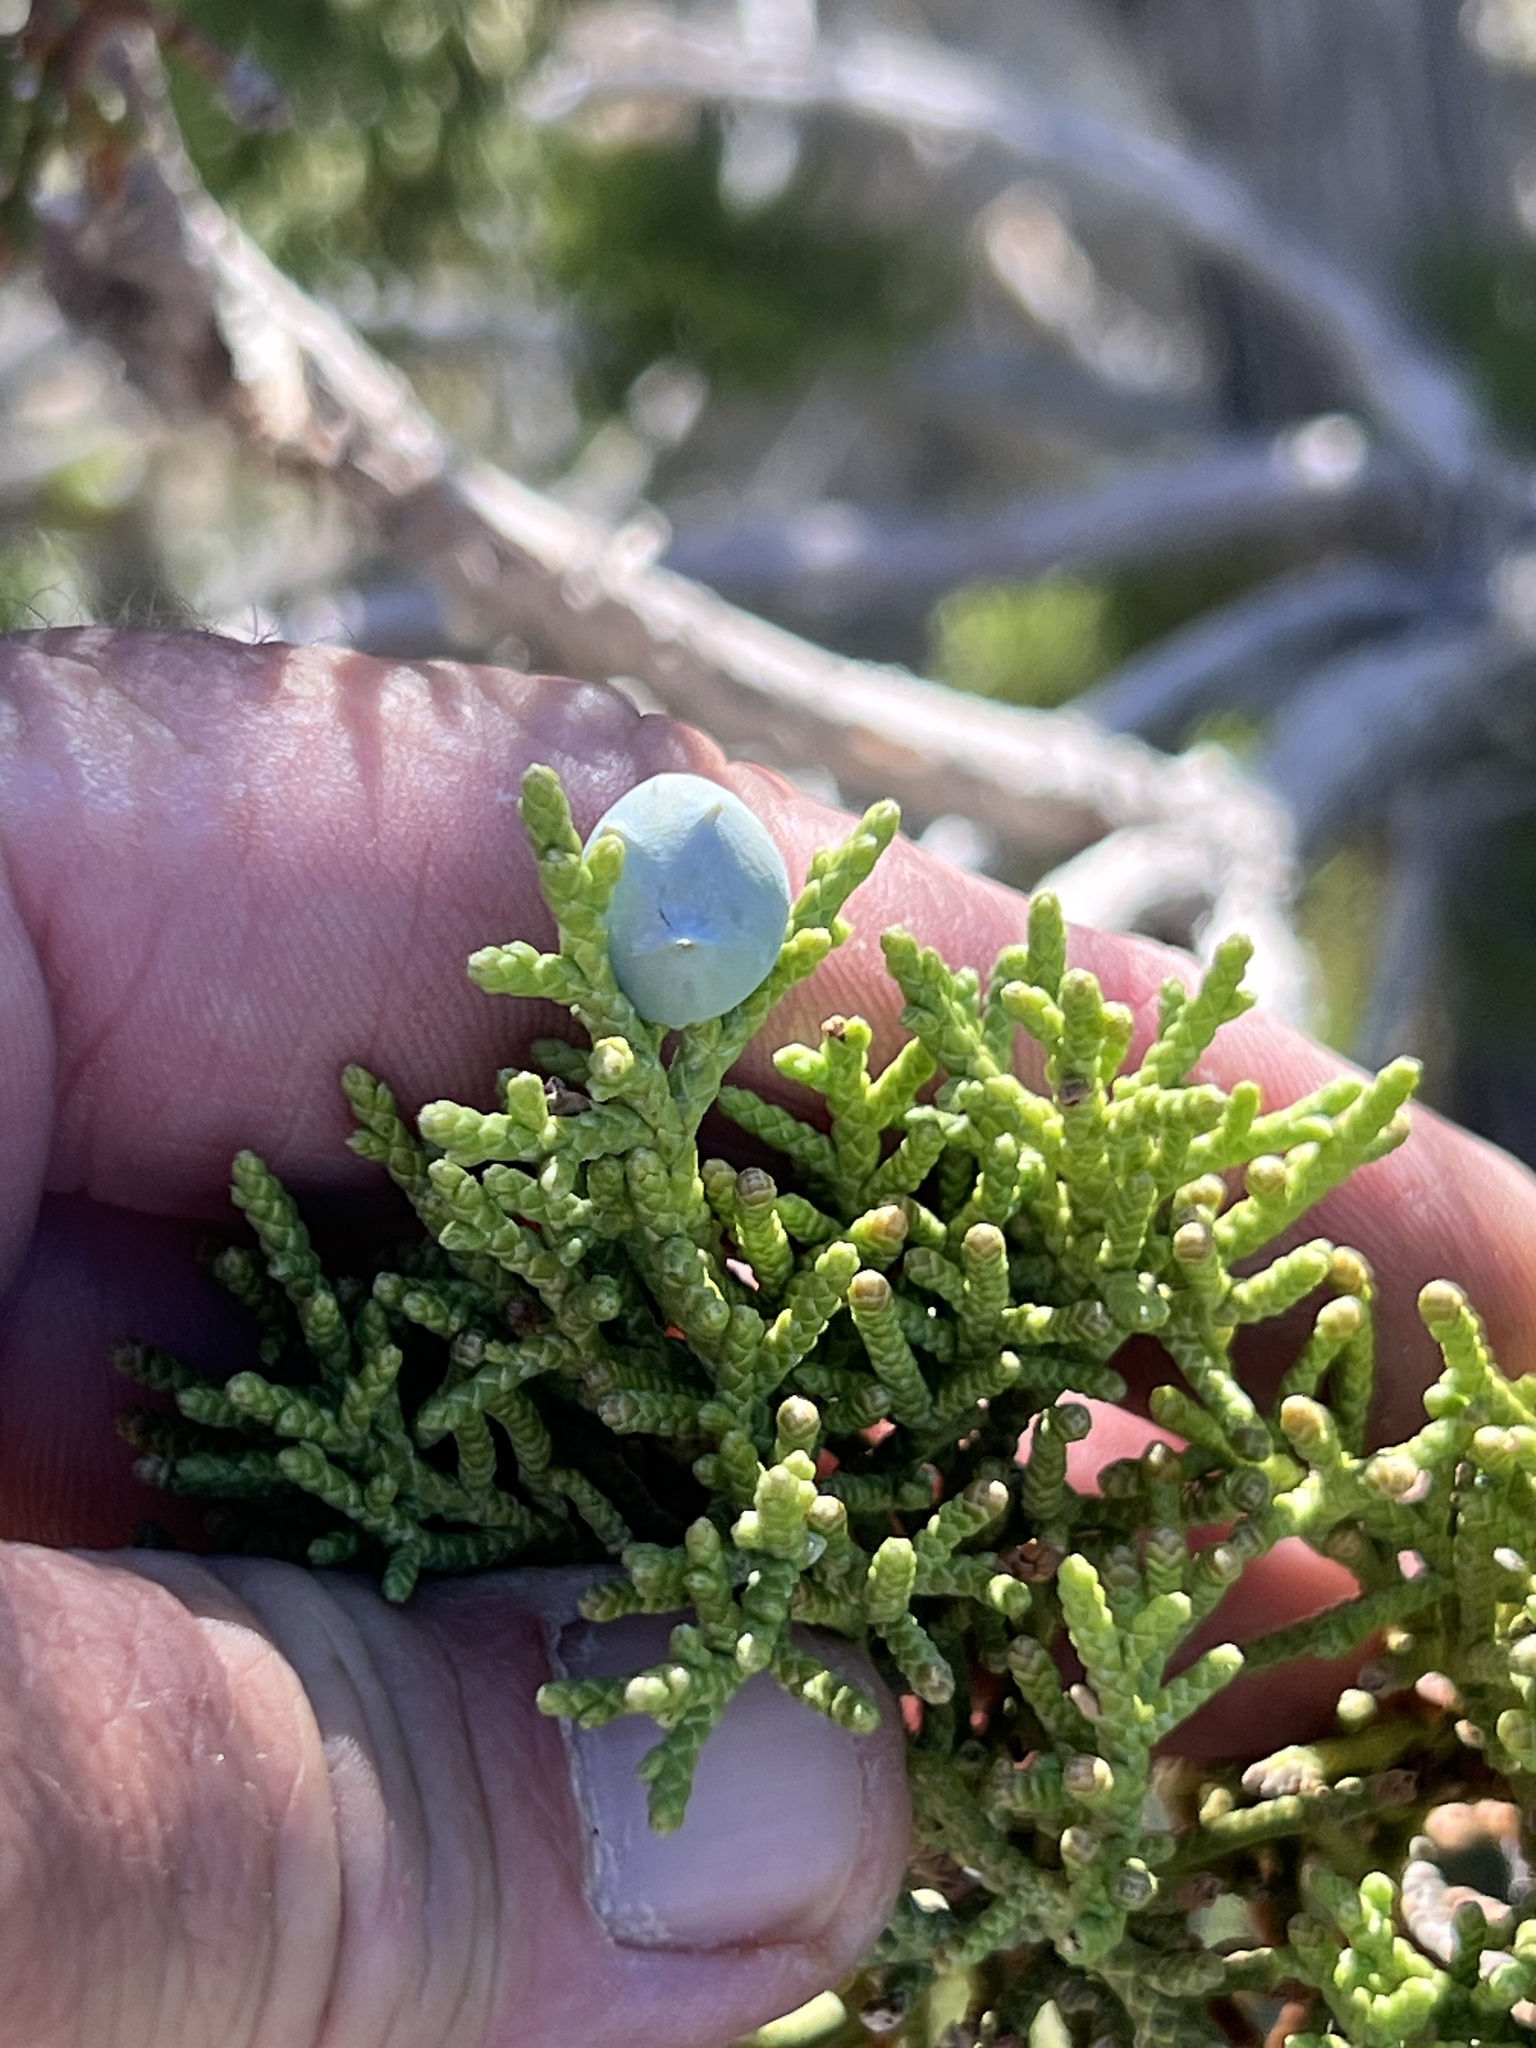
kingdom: Plantae
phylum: Tracheophyta
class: Pinopsida
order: Pinales
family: Cupressaceae
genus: Juniperus
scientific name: Juniperus osteosperma
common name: Utah juniper
